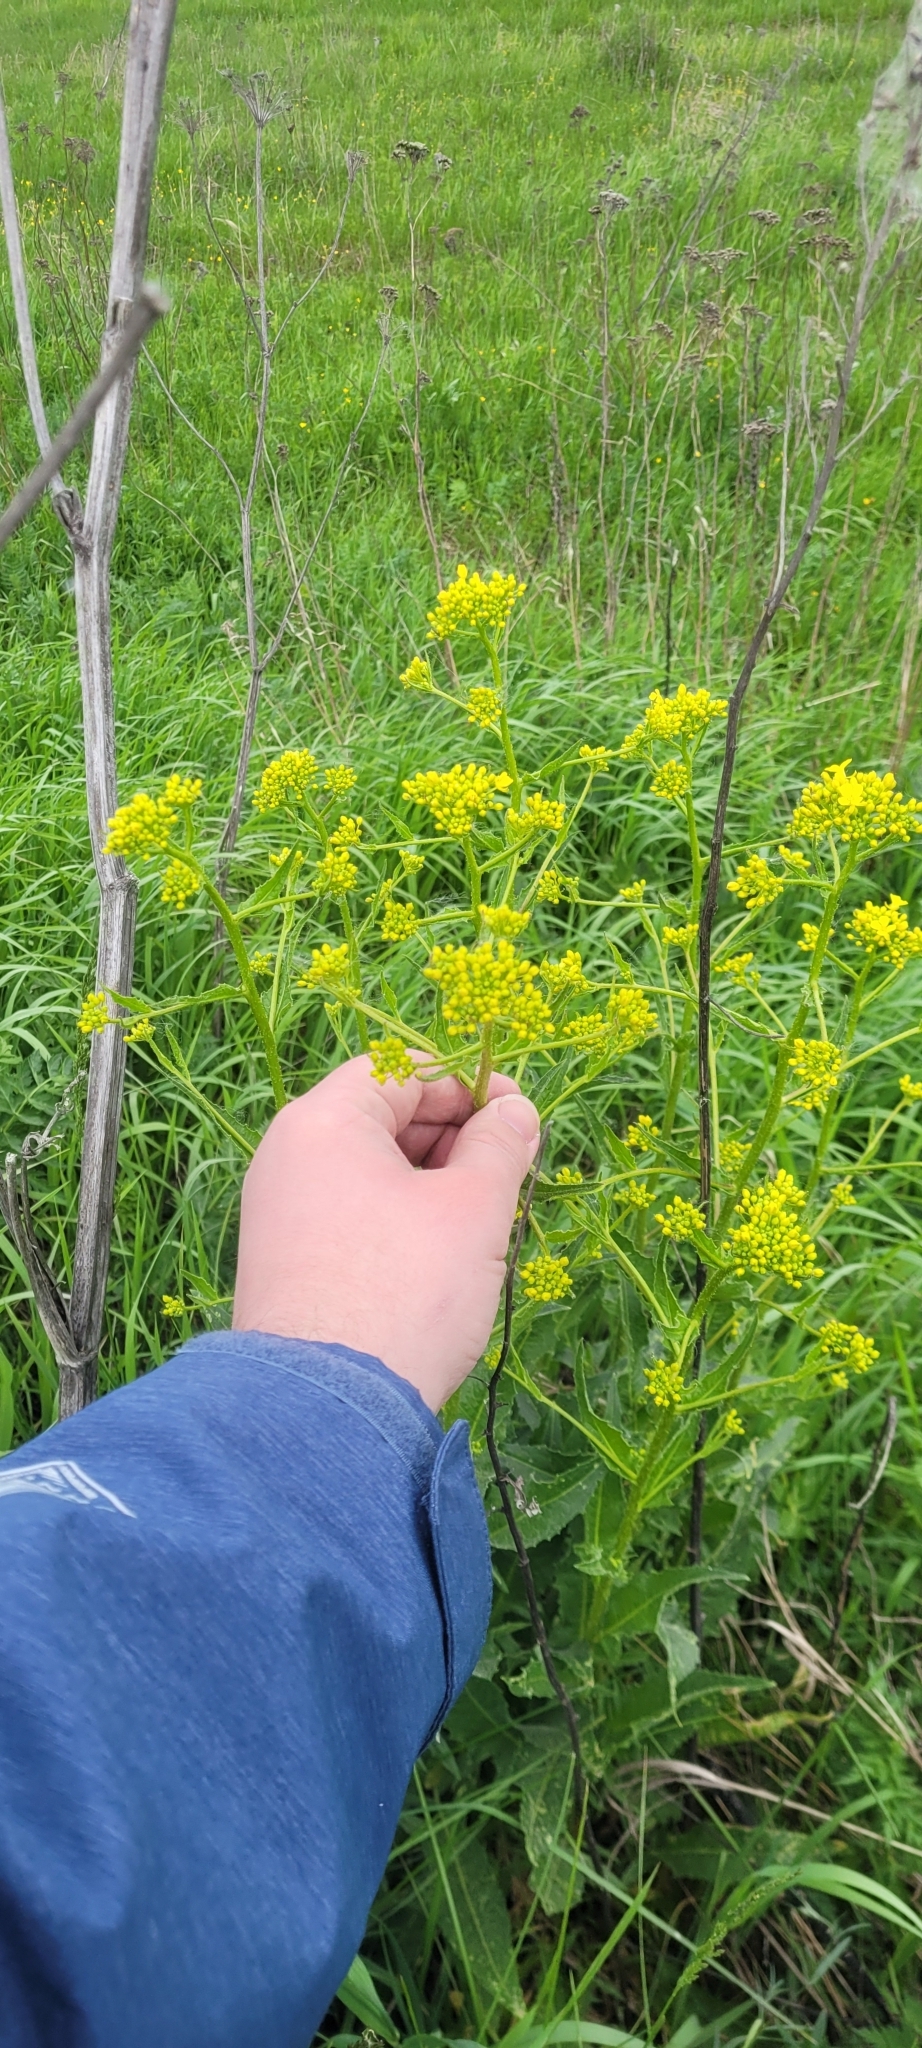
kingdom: Plantae
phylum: Tracheophyta
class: Magnoliopsida
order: Brassicales
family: Brassicaceae
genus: Bunias
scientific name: Bunias orientalis
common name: Warty-cabbage
